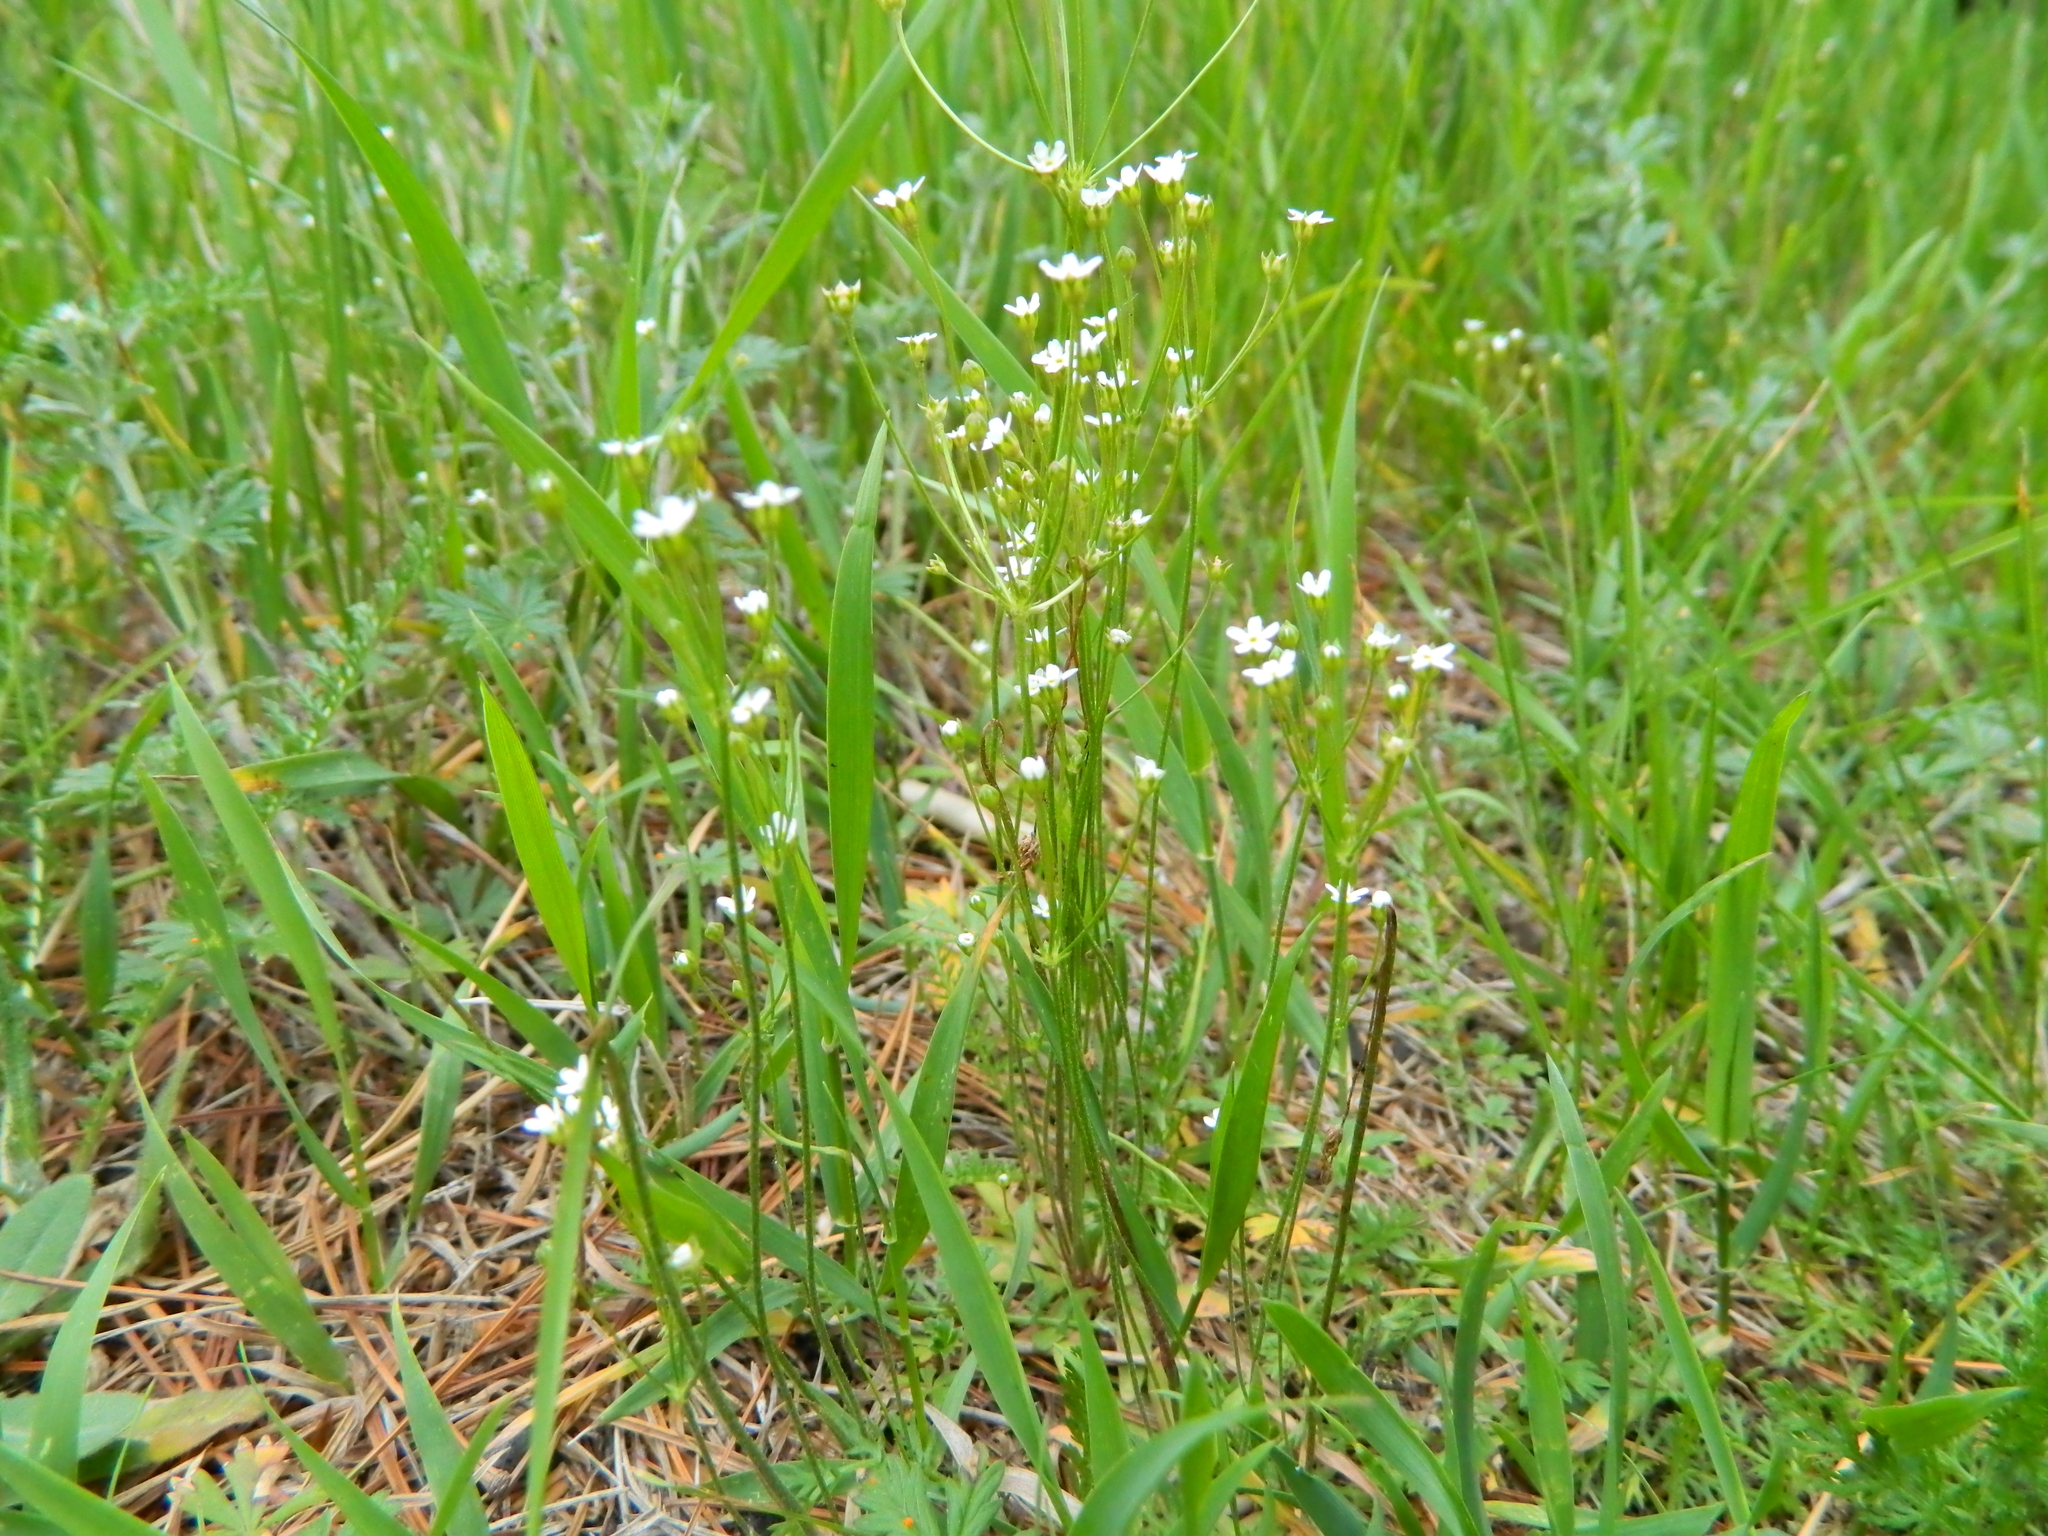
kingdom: Plantae
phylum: Tracheophyta
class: Magnoliopsida
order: Ericales
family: Primulaceae
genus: Androsace
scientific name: Androsace septentrionalis
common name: Hairy northern fairy-candelabra
